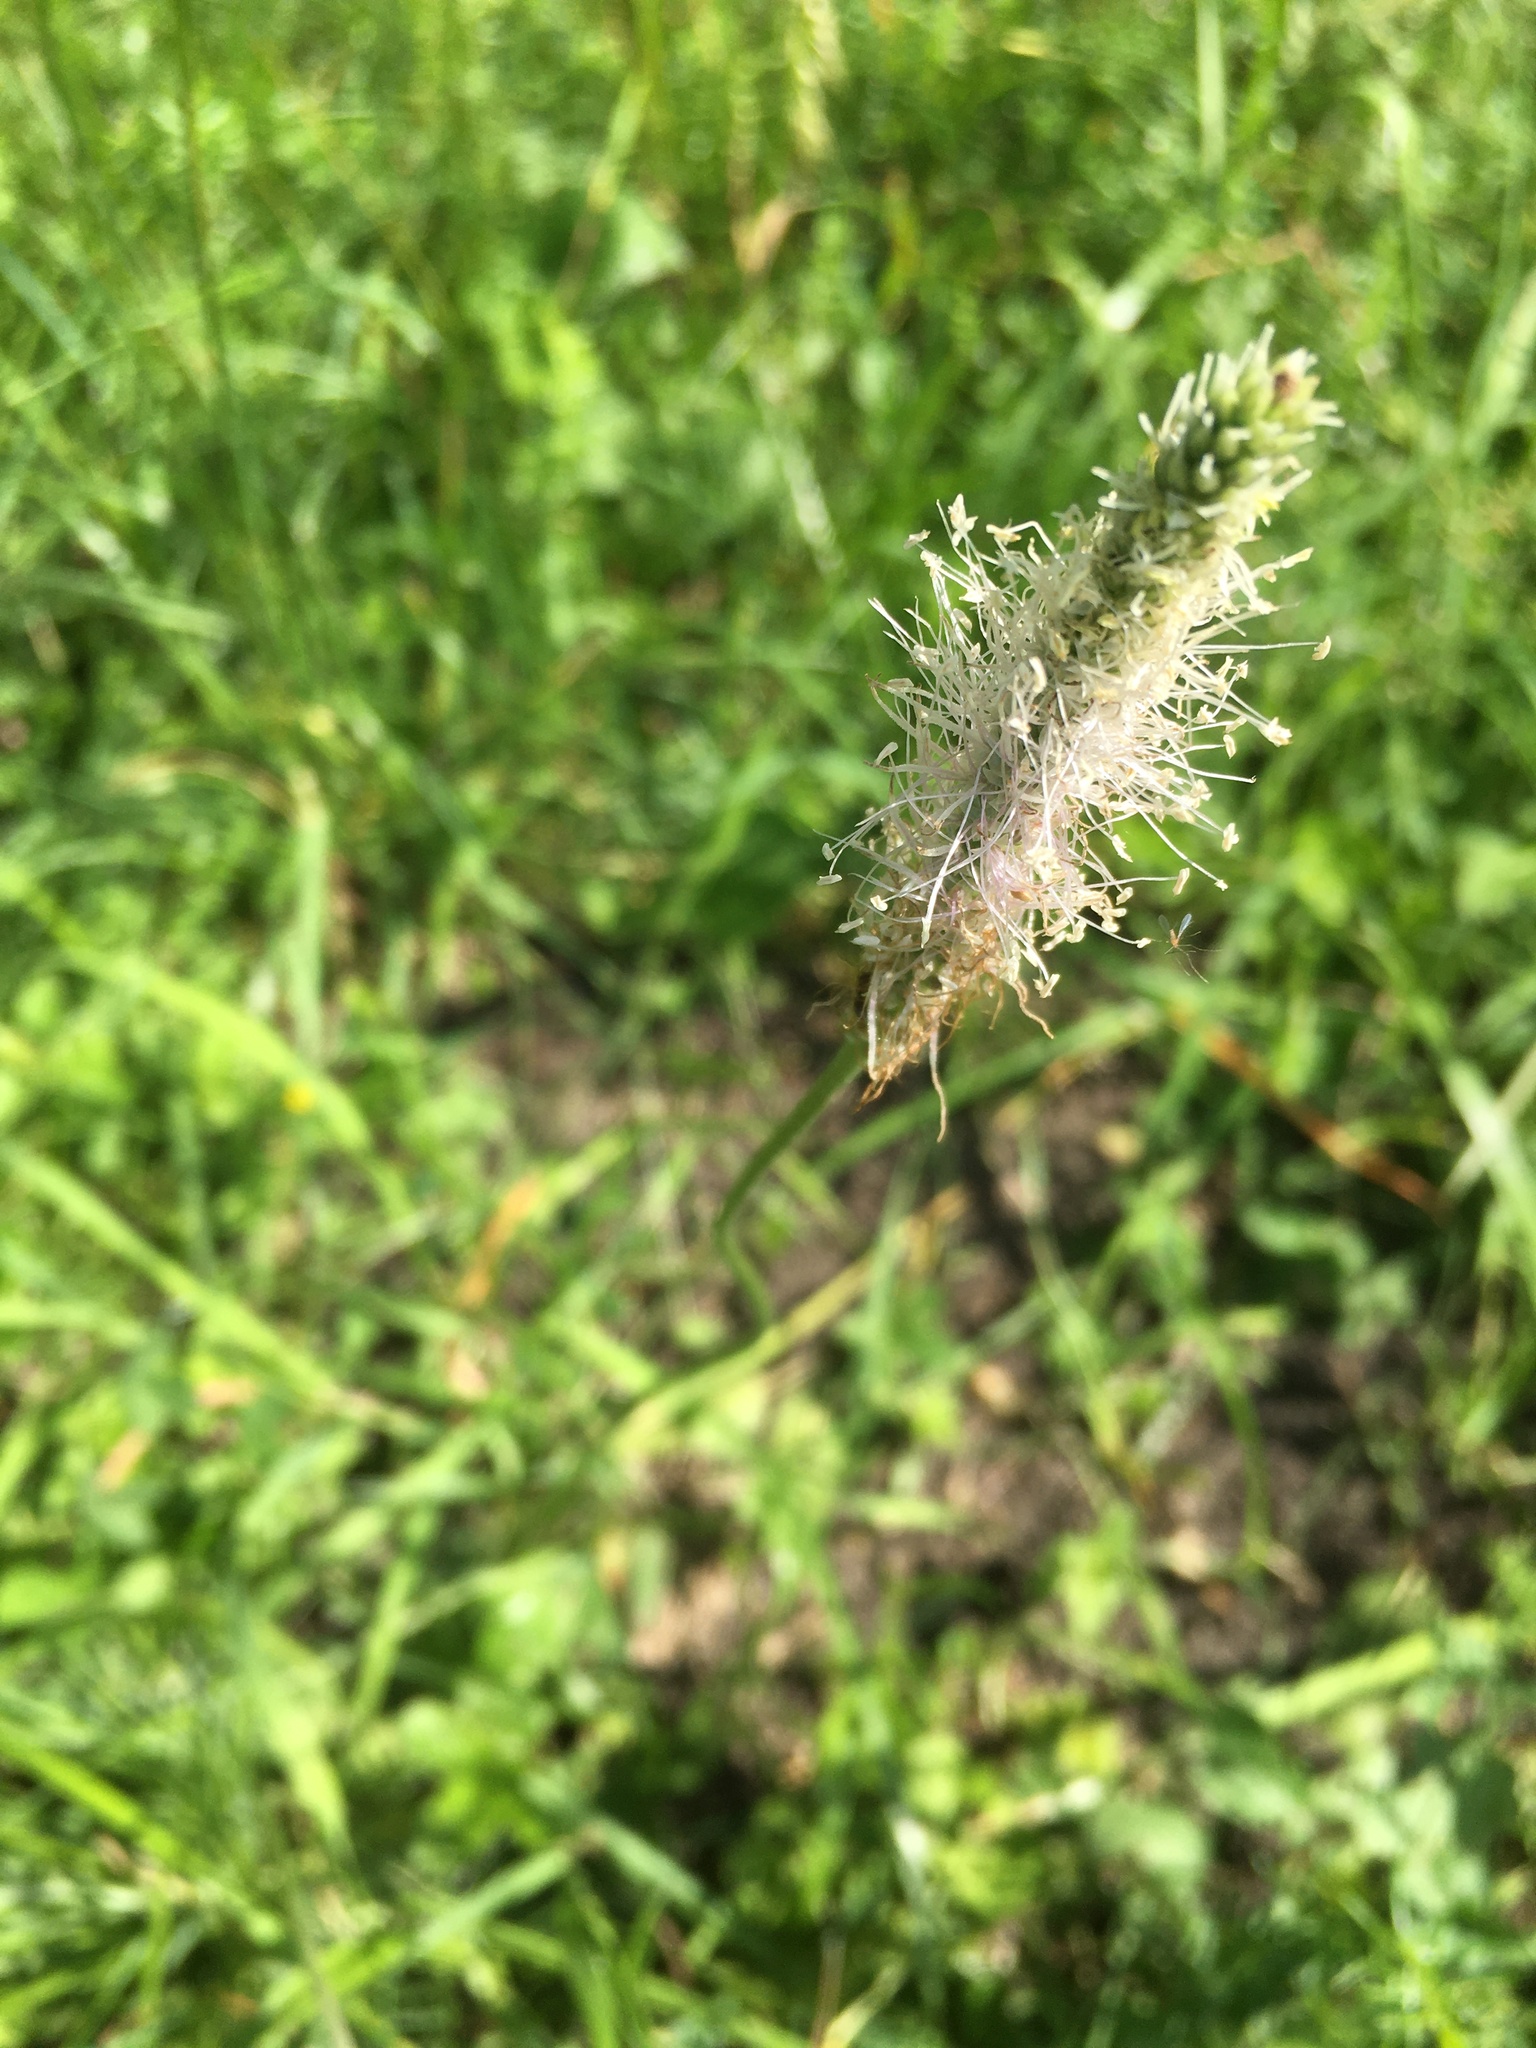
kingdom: Plantae
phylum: Tracheophyta
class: Magnoliopsida
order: Lamiales
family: Plantaginaceae
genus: Plantago
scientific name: Plantago media
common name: Hoary plantain
